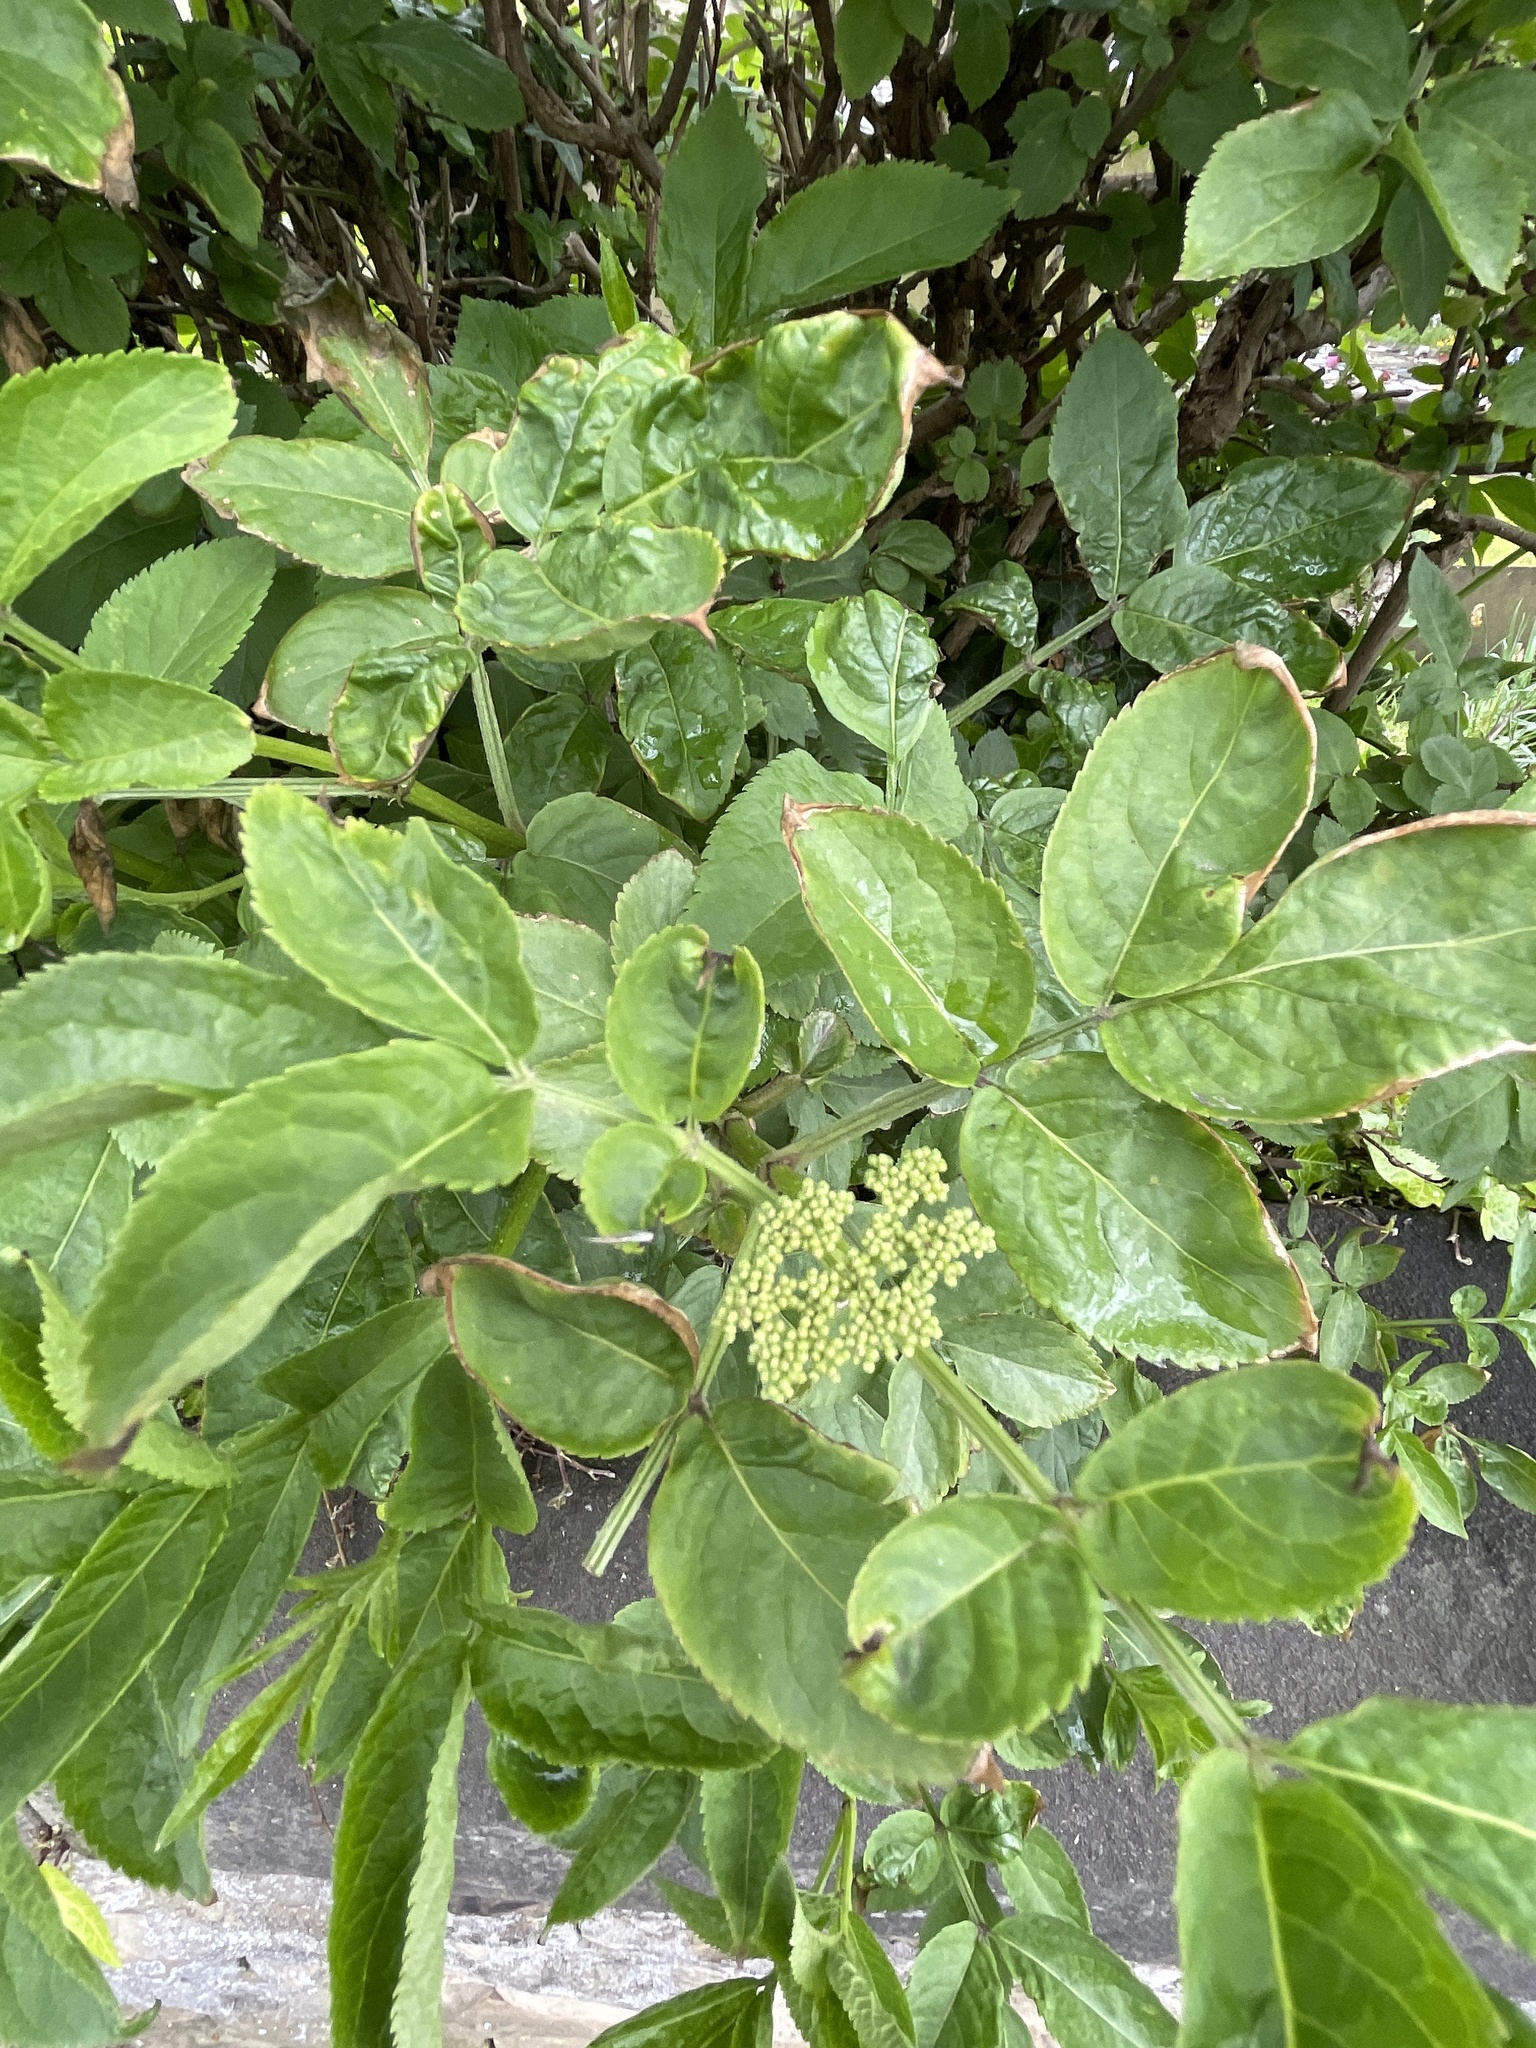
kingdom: Plantae
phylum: Tracheophyta
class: Magnoliopsida
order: Dipsacales
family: Viburnaceae
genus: Sambucus
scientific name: Sambucus nigra
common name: Elder
